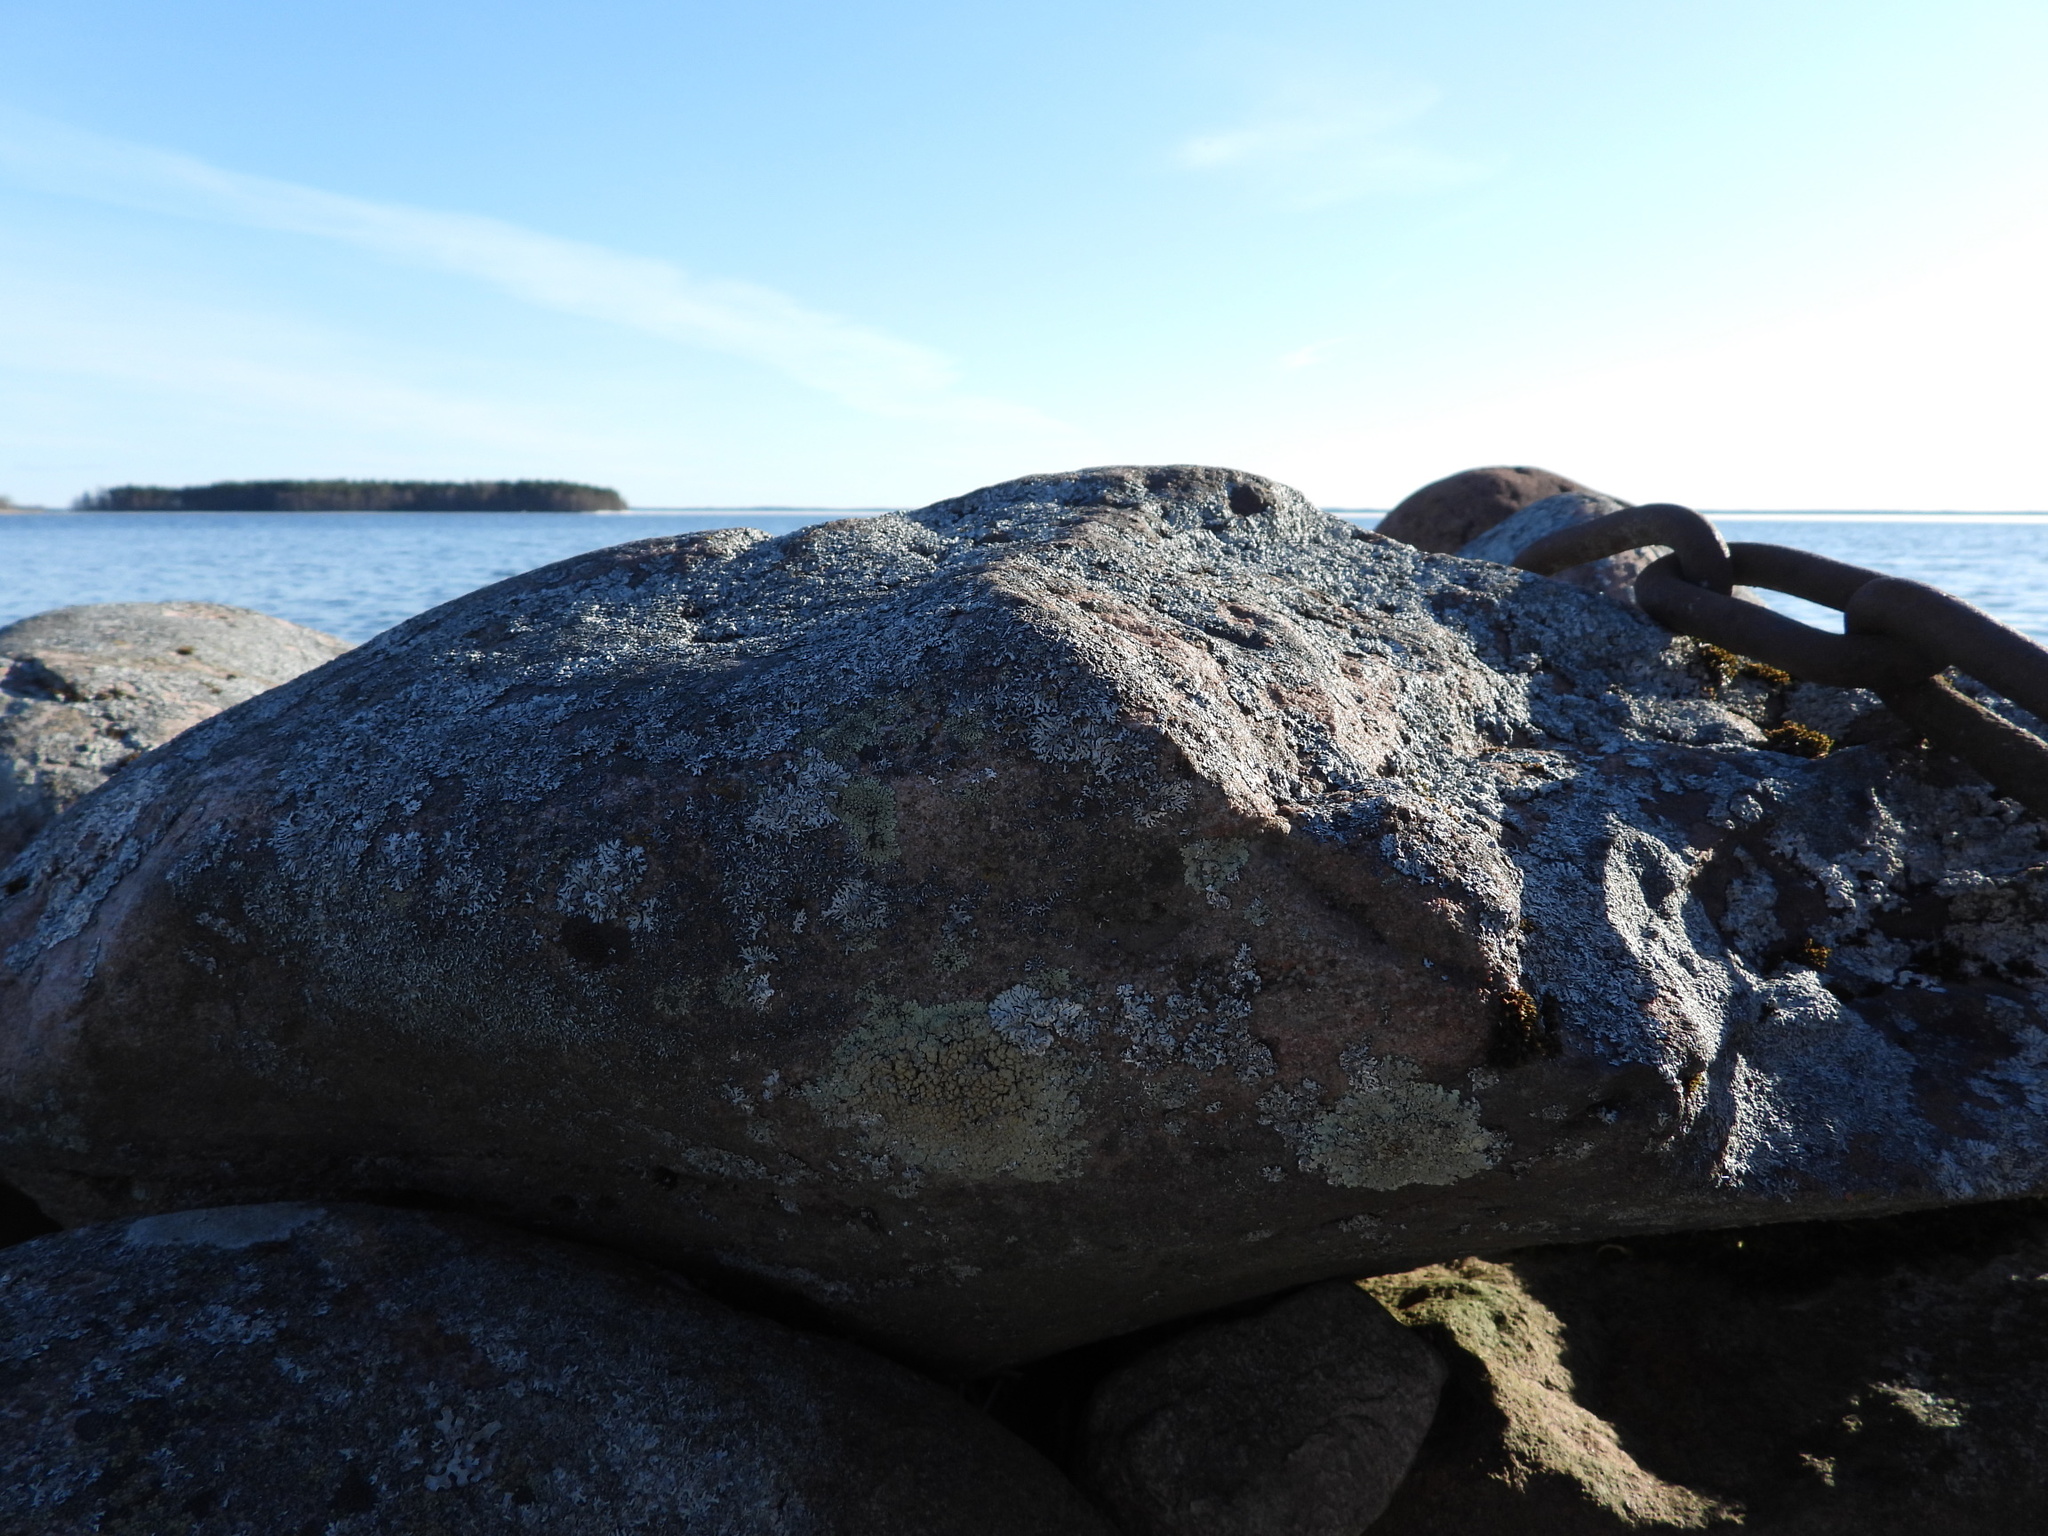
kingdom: Fungi
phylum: Ascomycota
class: Lecanoromycetes
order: Lecanorales
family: Lecanoraceae
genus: Protoparmeliopsis
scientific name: Protoparmeliopsis muralis
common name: Stonewall rim lichen
